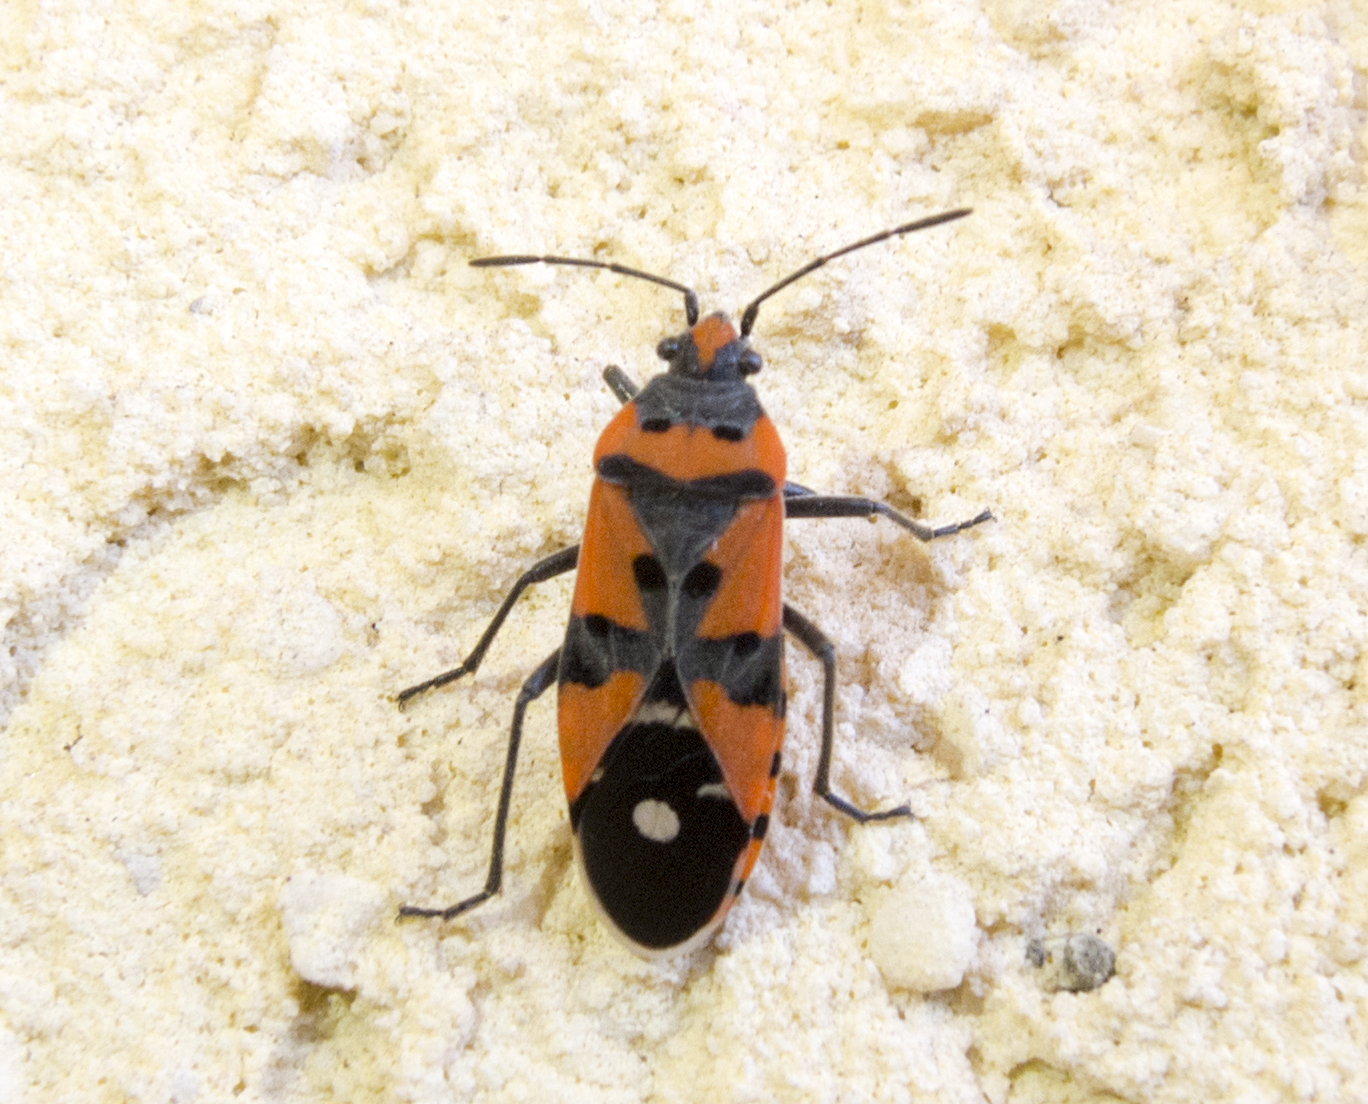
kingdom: Animalia
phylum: Arthropoda
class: Insecta
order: Hemiptera
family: Lygaeidae
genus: Lygaeus
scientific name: Lygaeus equestris
